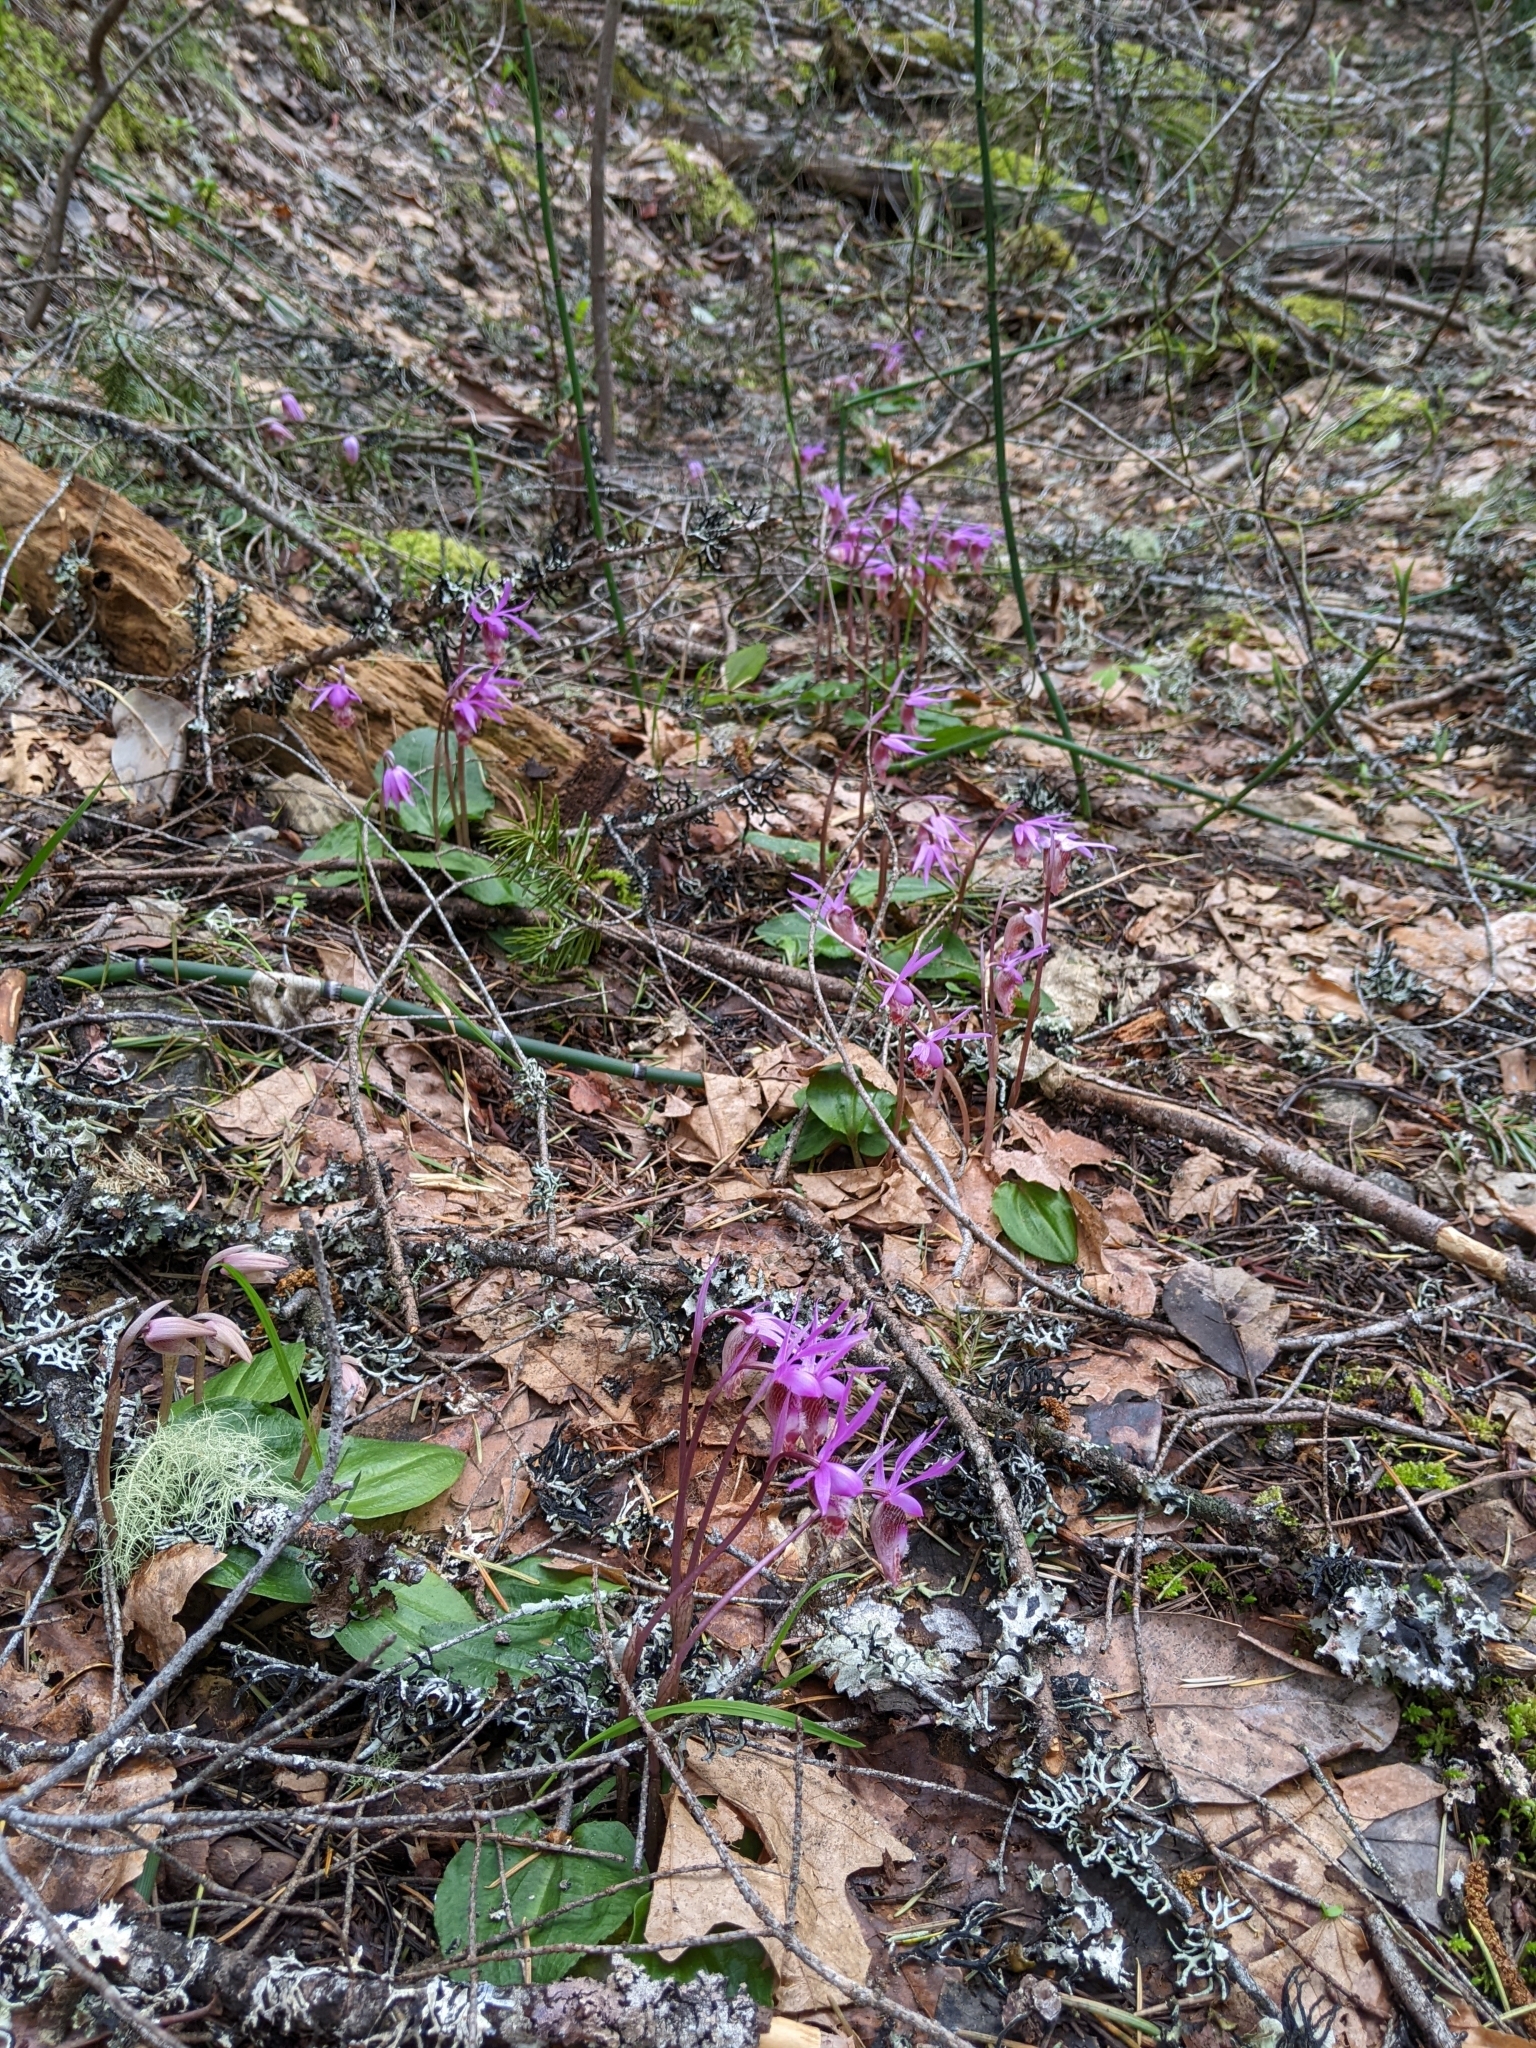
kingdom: Plantae
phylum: Tracheophyta
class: Liliopsida
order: Asparagales
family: Orchidaceae
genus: Calypso
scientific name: Calypso bulbosa
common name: Calypso
